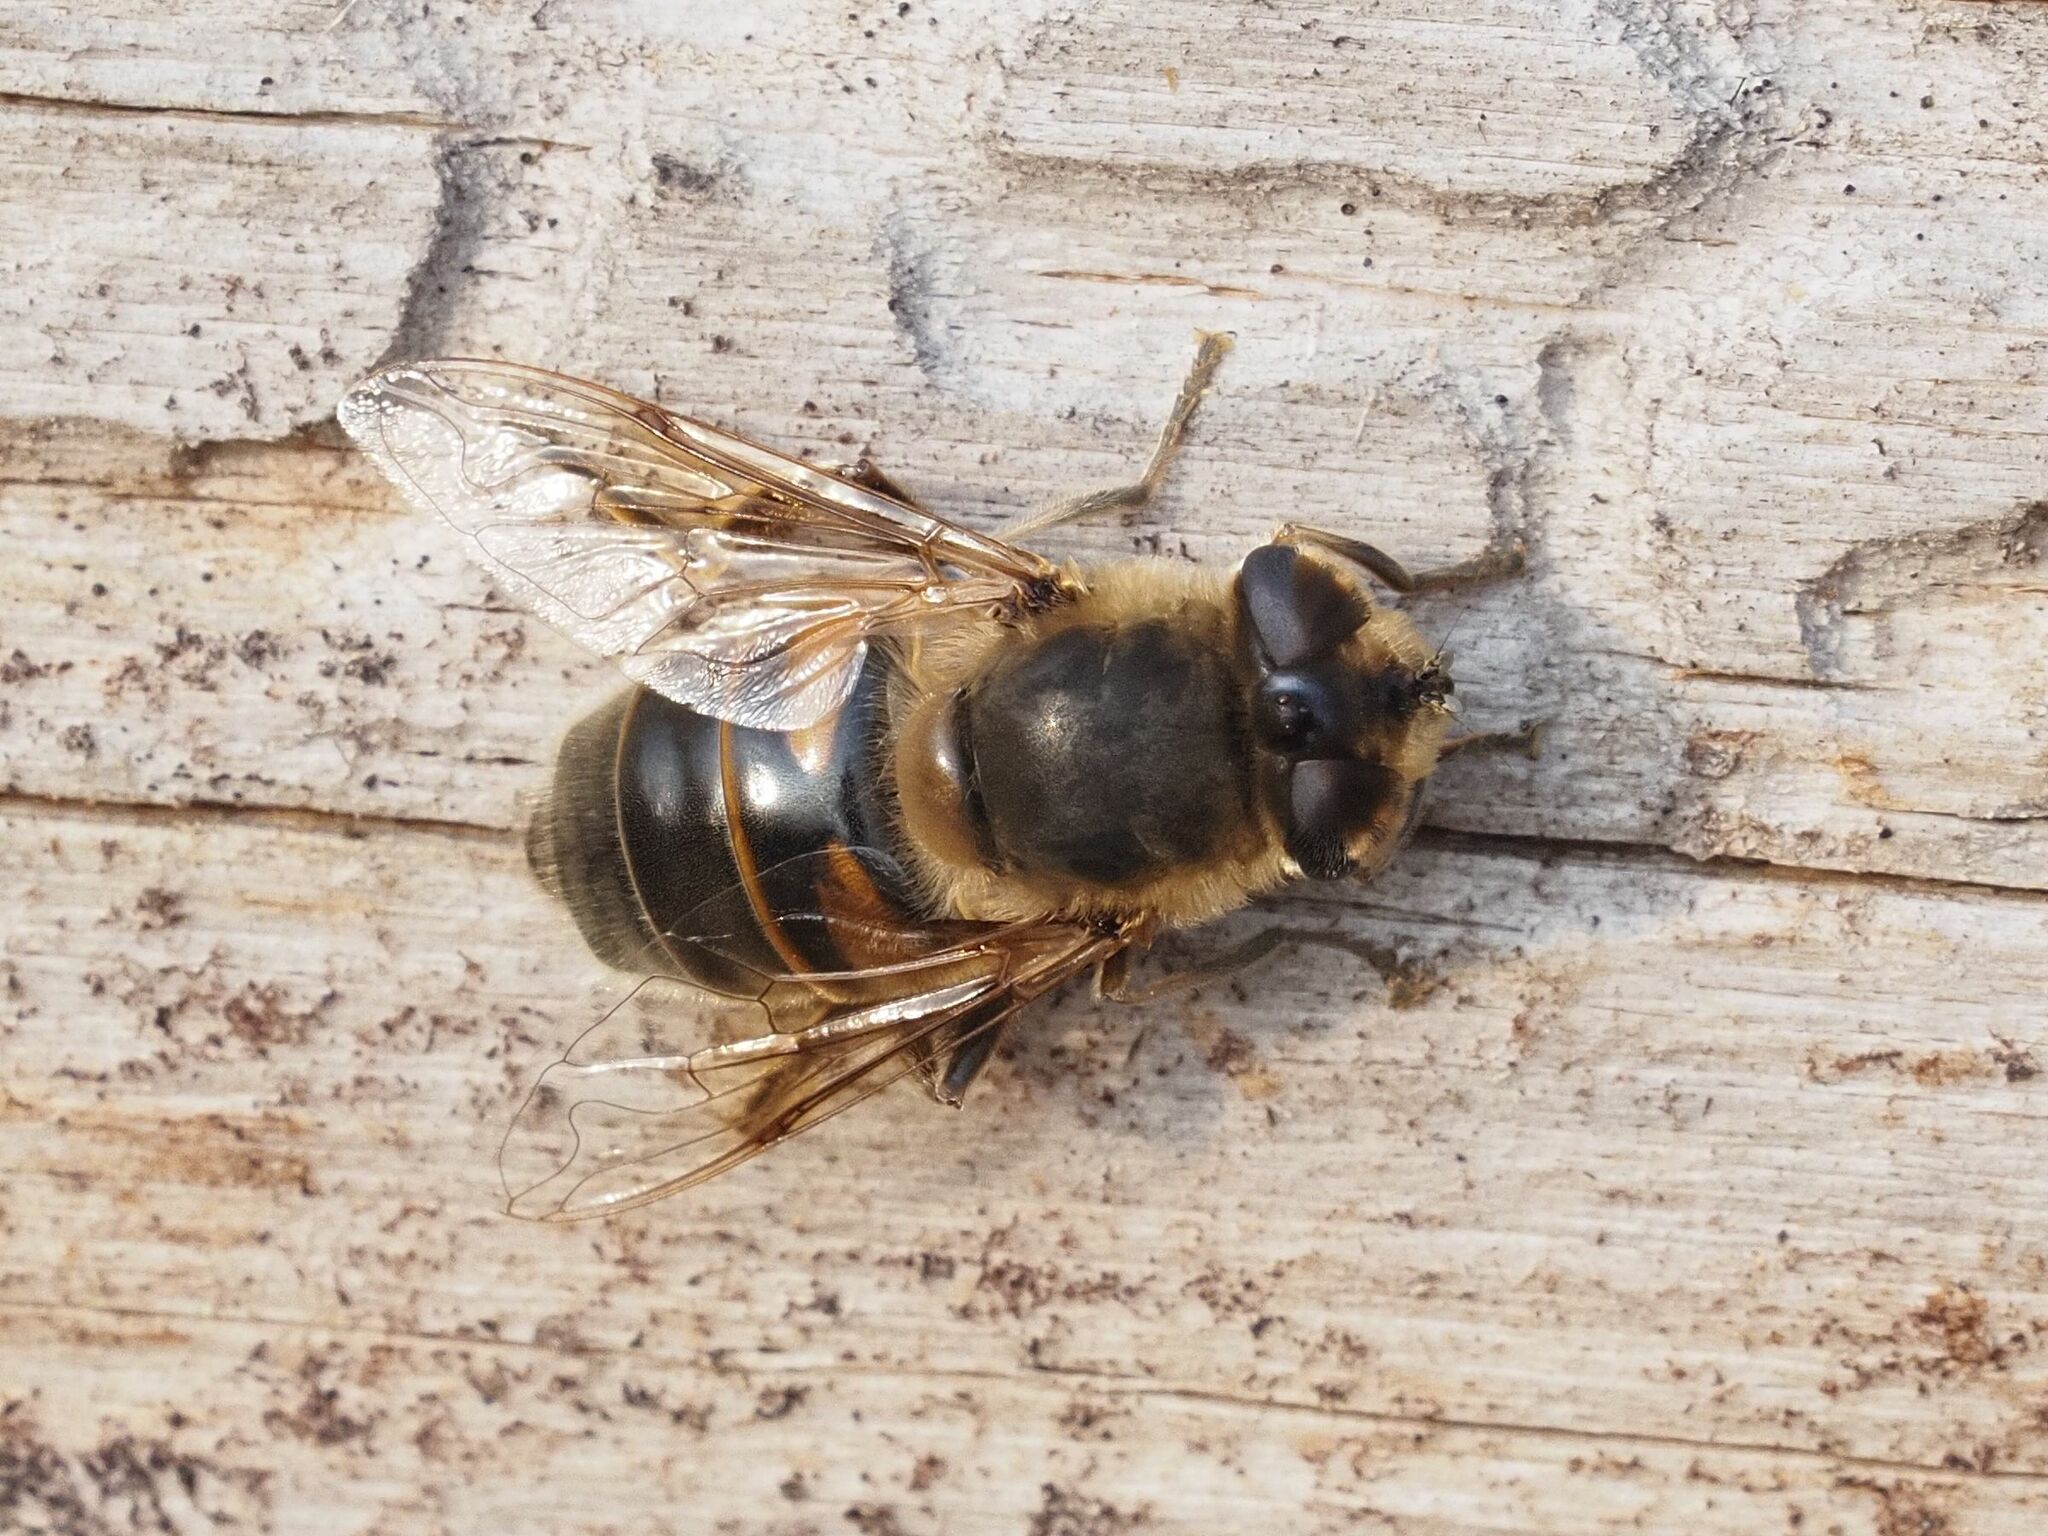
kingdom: Animalia
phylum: Arthropoda
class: Insecta
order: Diptera
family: Syrphidae
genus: Eristalis
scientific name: Eristalis tenax
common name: Drone fly
